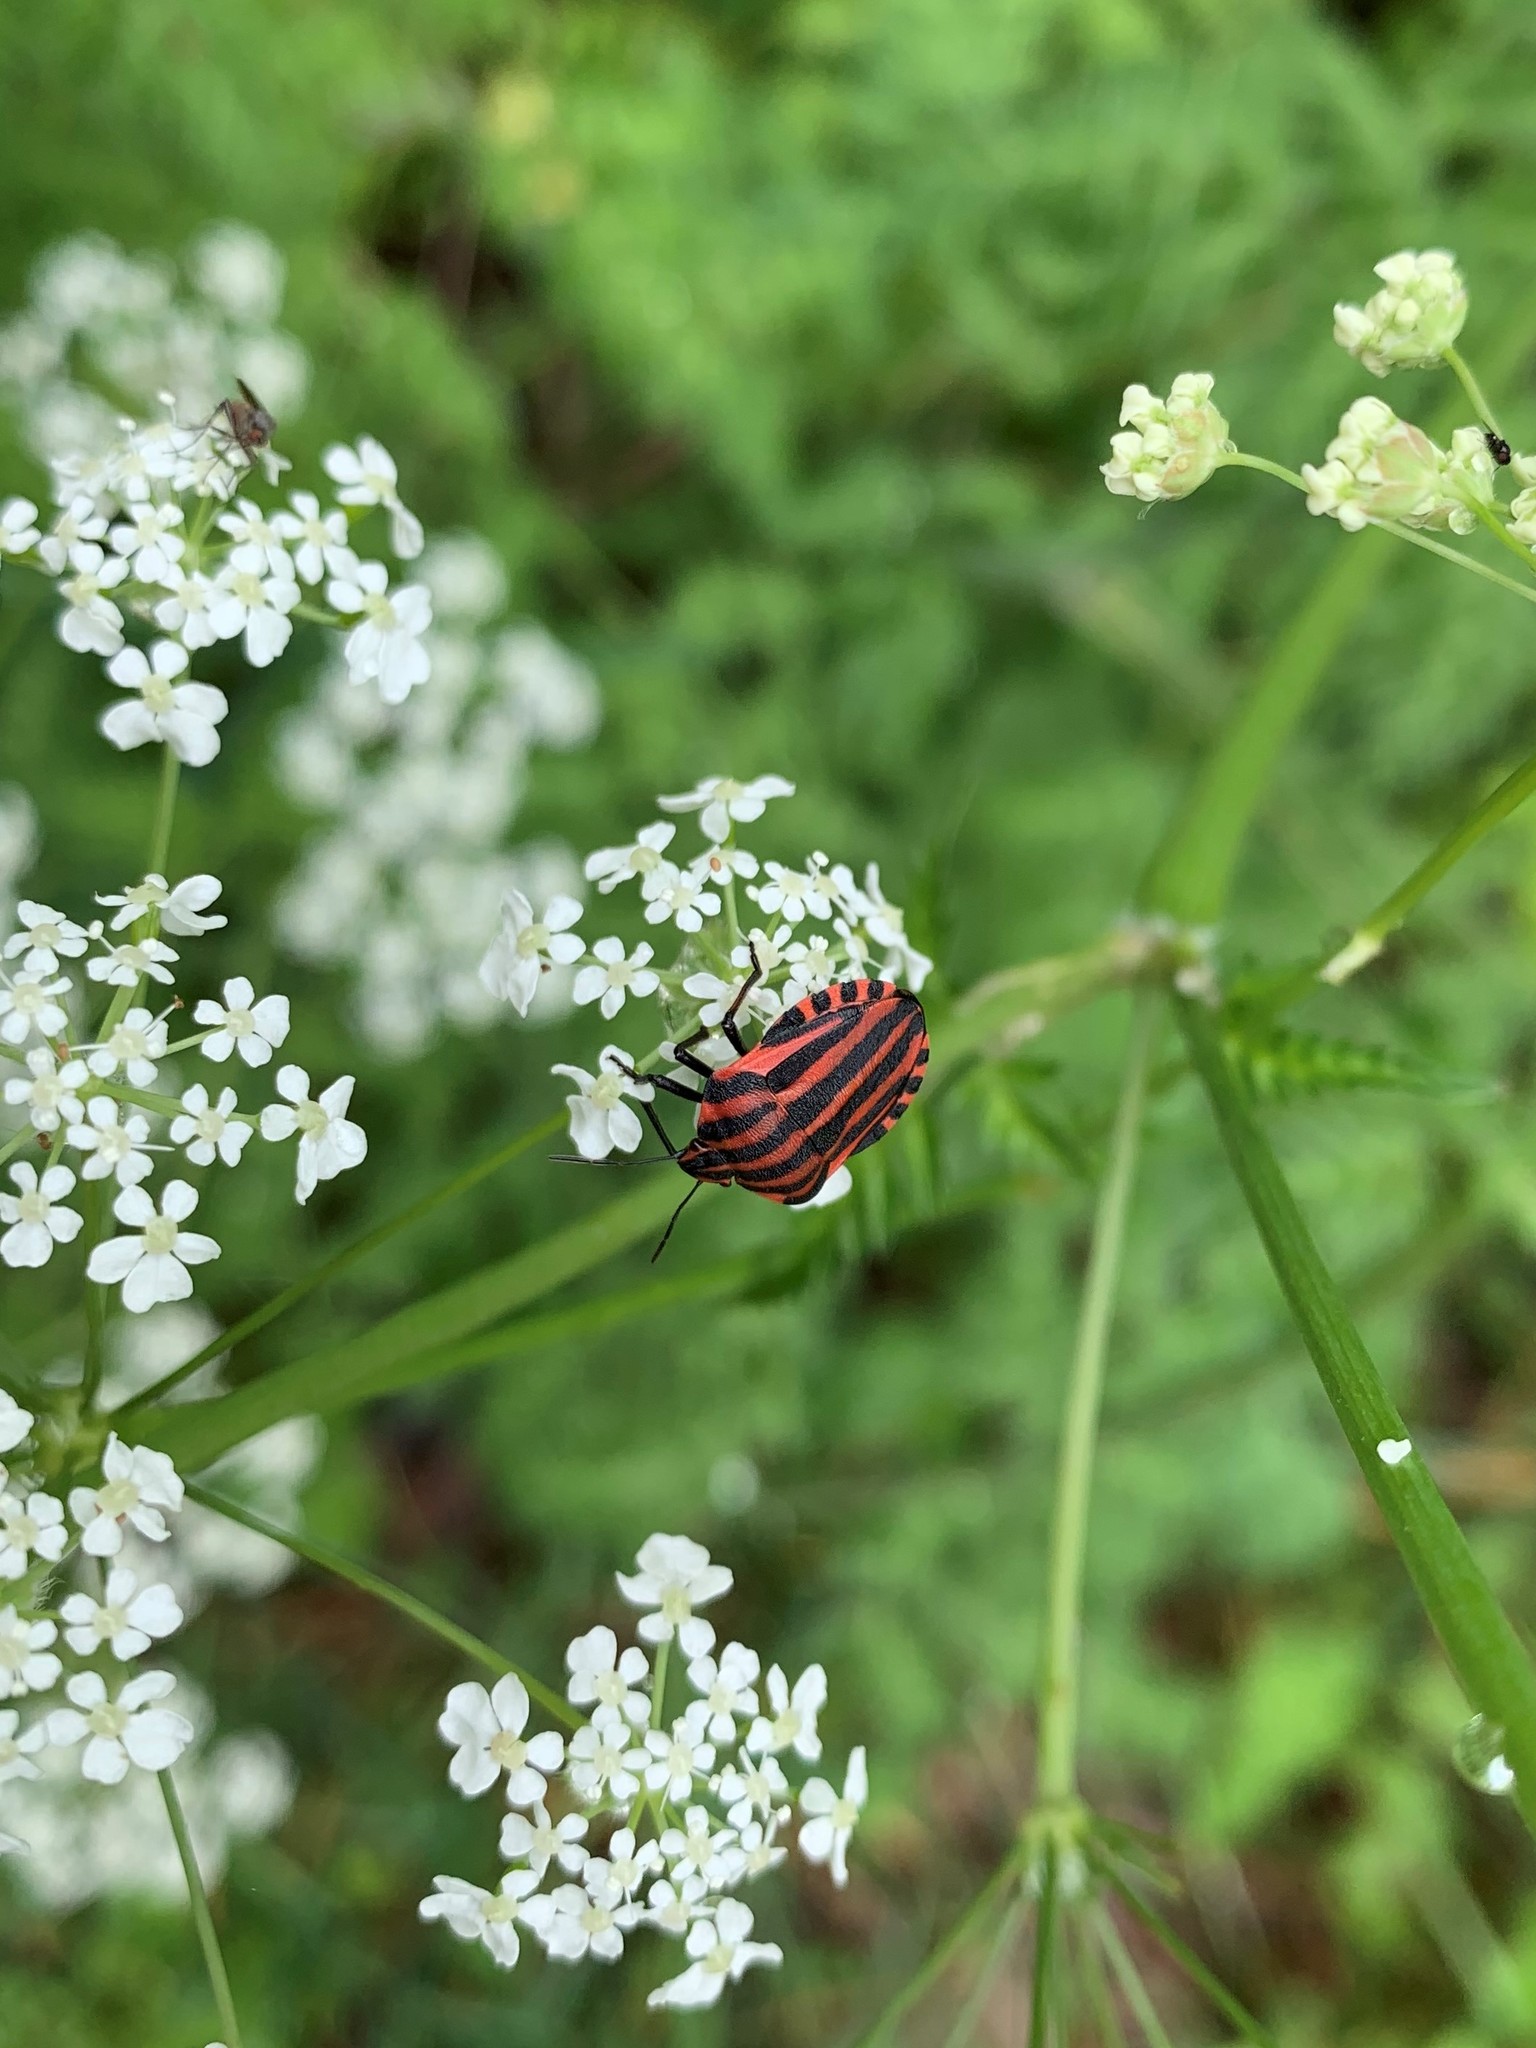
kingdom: Animalia
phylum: Arthropoda
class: Insecta
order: Hemiptera
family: Pentatomidae
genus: Graphosoma
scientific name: Graphosoma italicum
